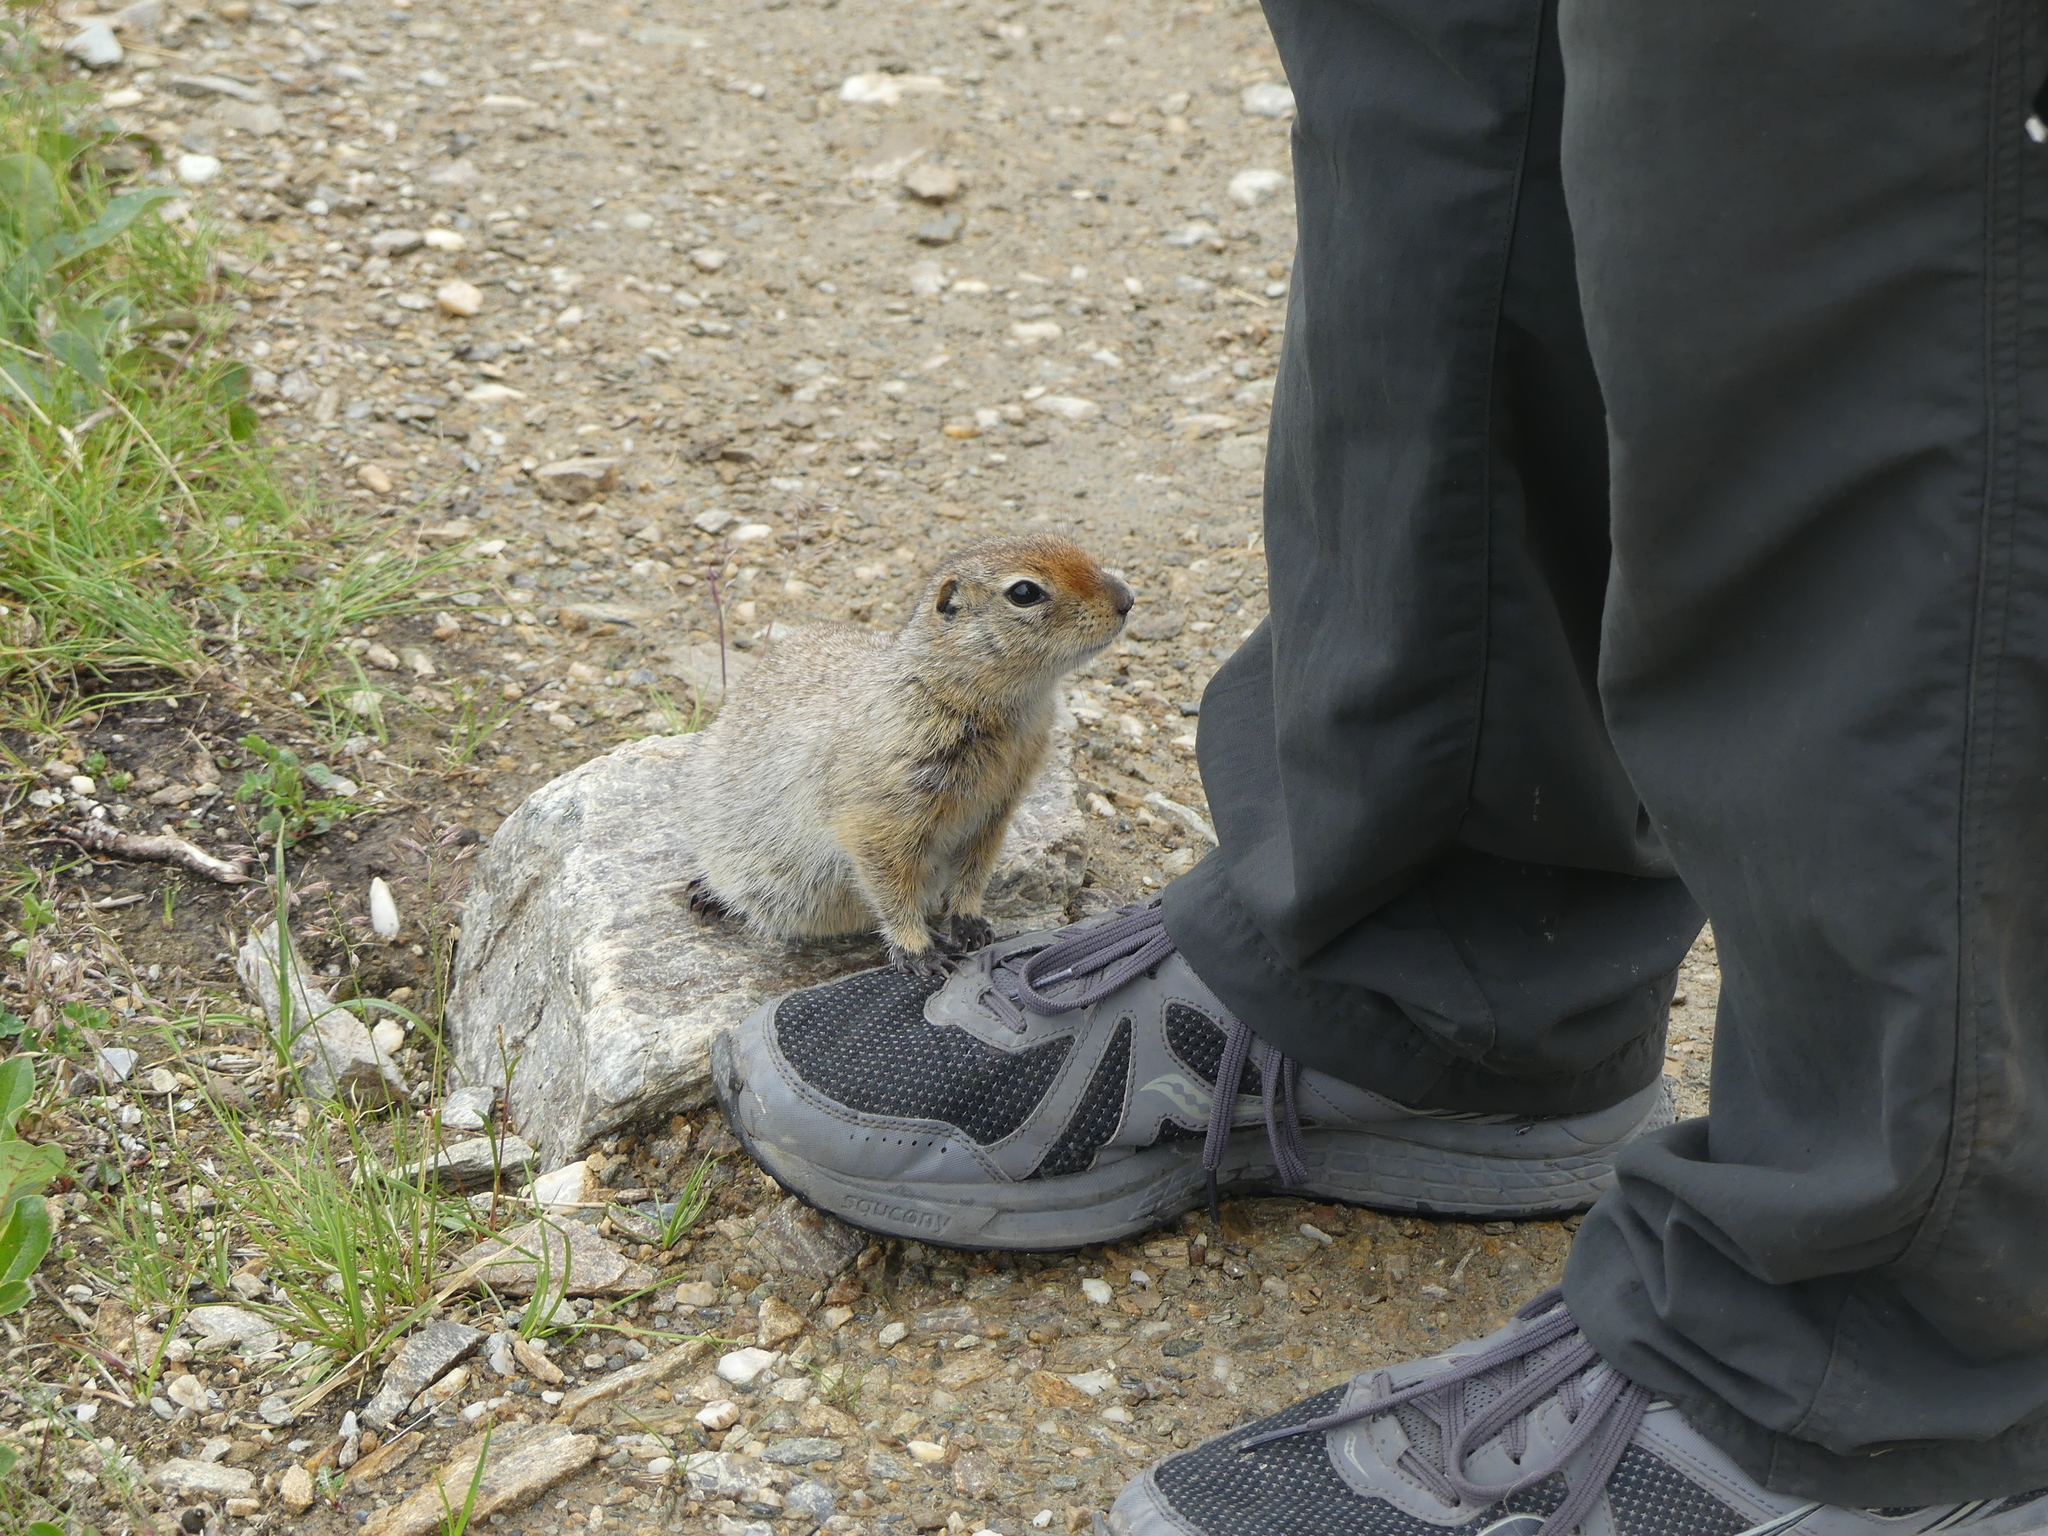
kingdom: Animalia
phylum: Chordata
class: Mammalia
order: Rodentia
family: Sciuridae
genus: Urocitellus
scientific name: Urocitellus parryii
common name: Arctic ground squirrel
